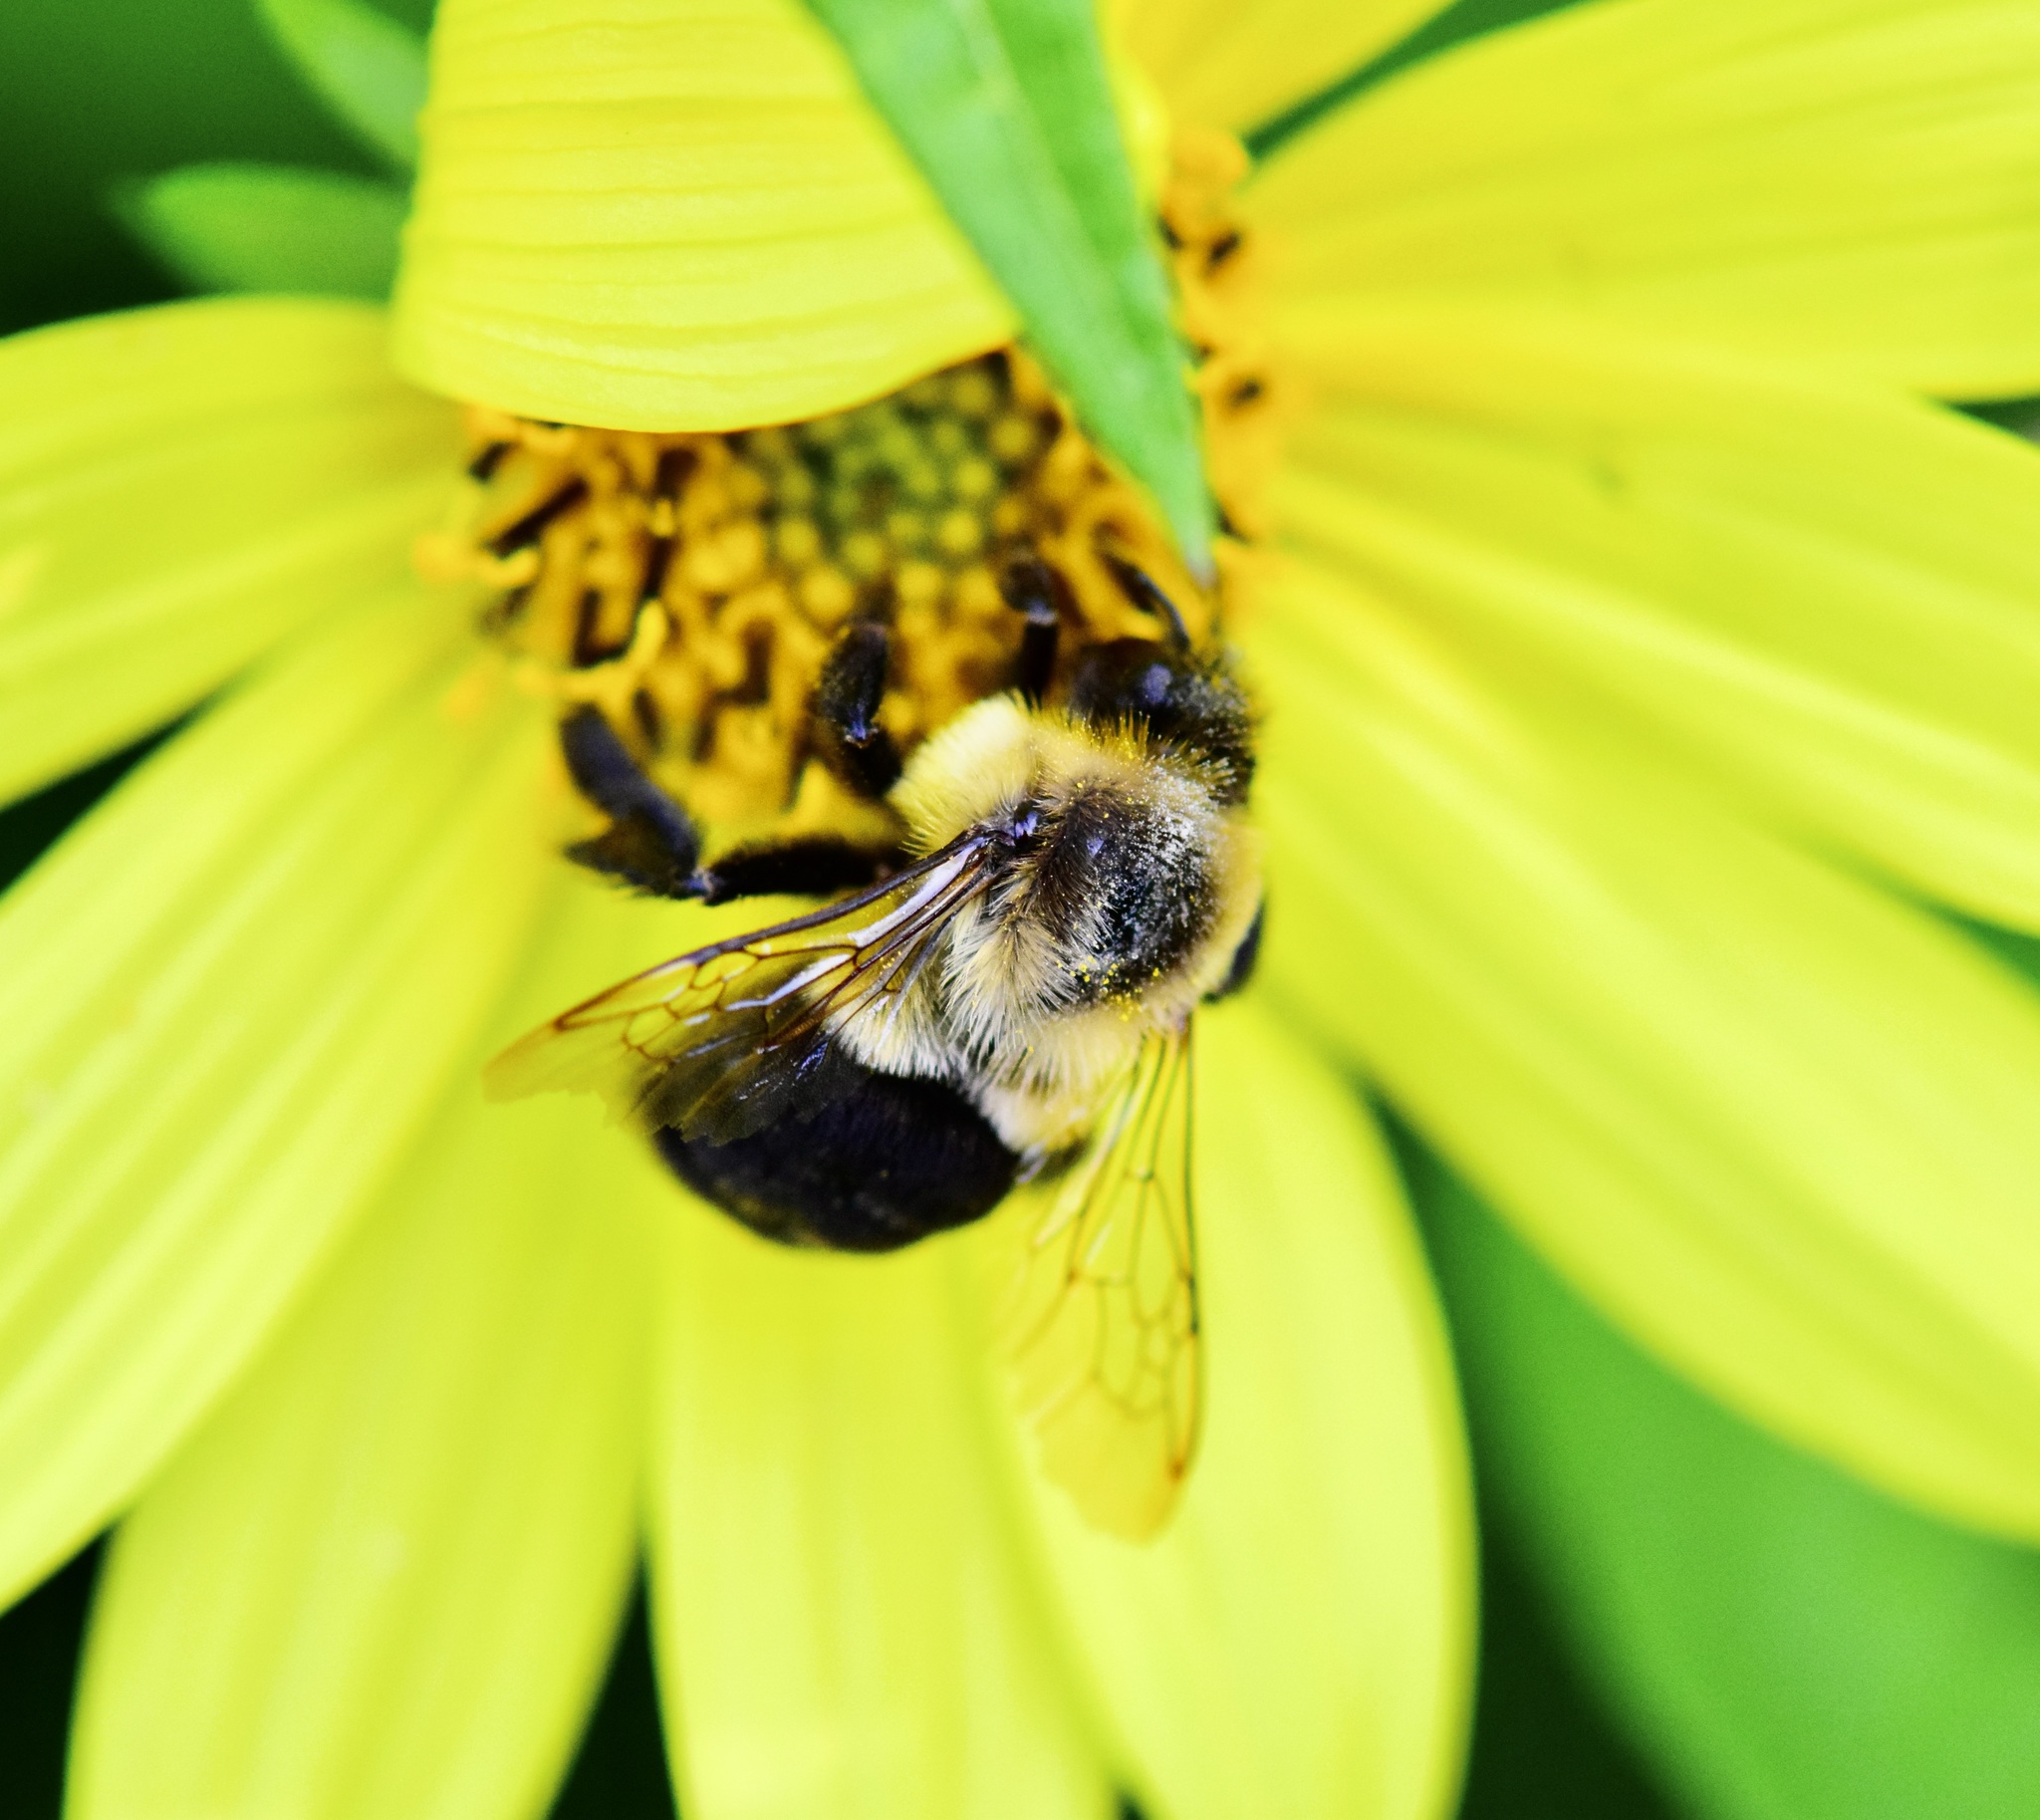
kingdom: Animalia
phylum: Arthropoda
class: Insecta
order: Hymenoptera
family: Apidae
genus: Bombus
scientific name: Bombus impatiens
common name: Common eastern bumble bee
